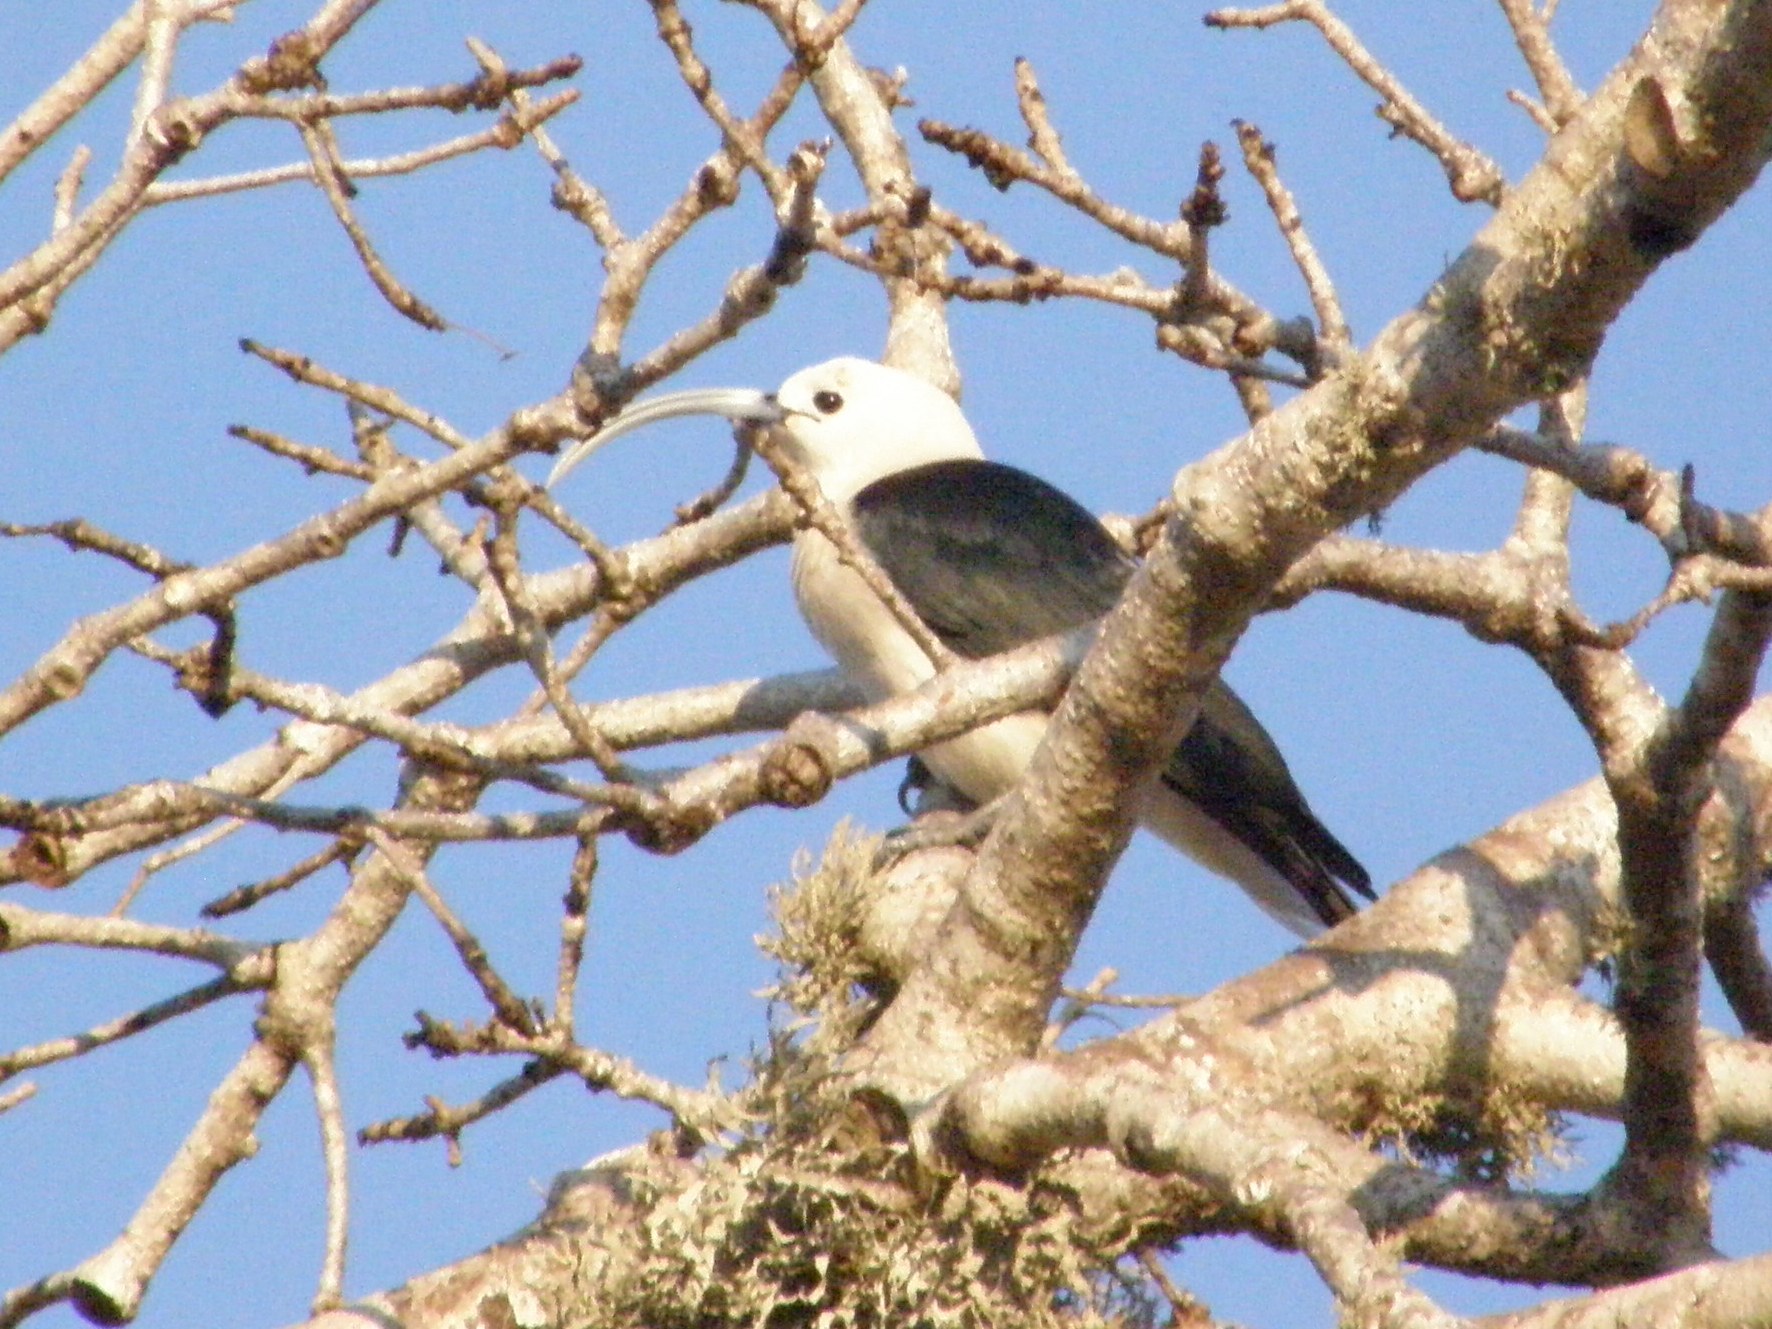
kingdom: Animalia
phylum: Chordata
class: Aves
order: Passeriformes
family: Vangidae
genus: Falculea
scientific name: Falculea palliata
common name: Sickle-billed vanga
